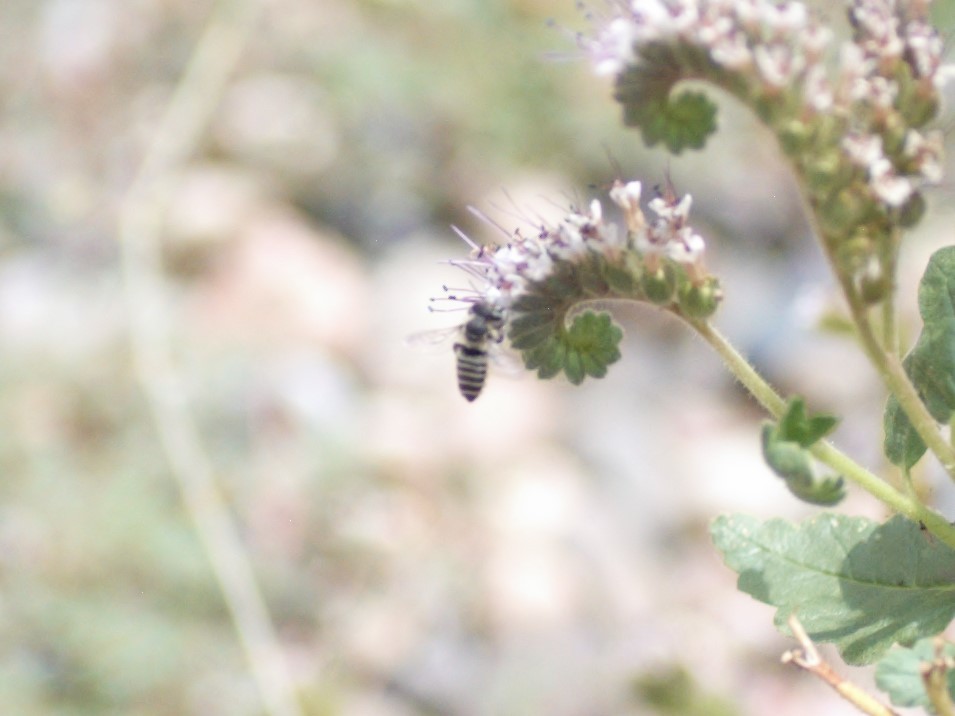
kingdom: Animalia
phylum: Arthropoda
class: Insecta
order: Hymenoptera
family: Megachilidae
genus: Megachile
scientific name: Megachile
